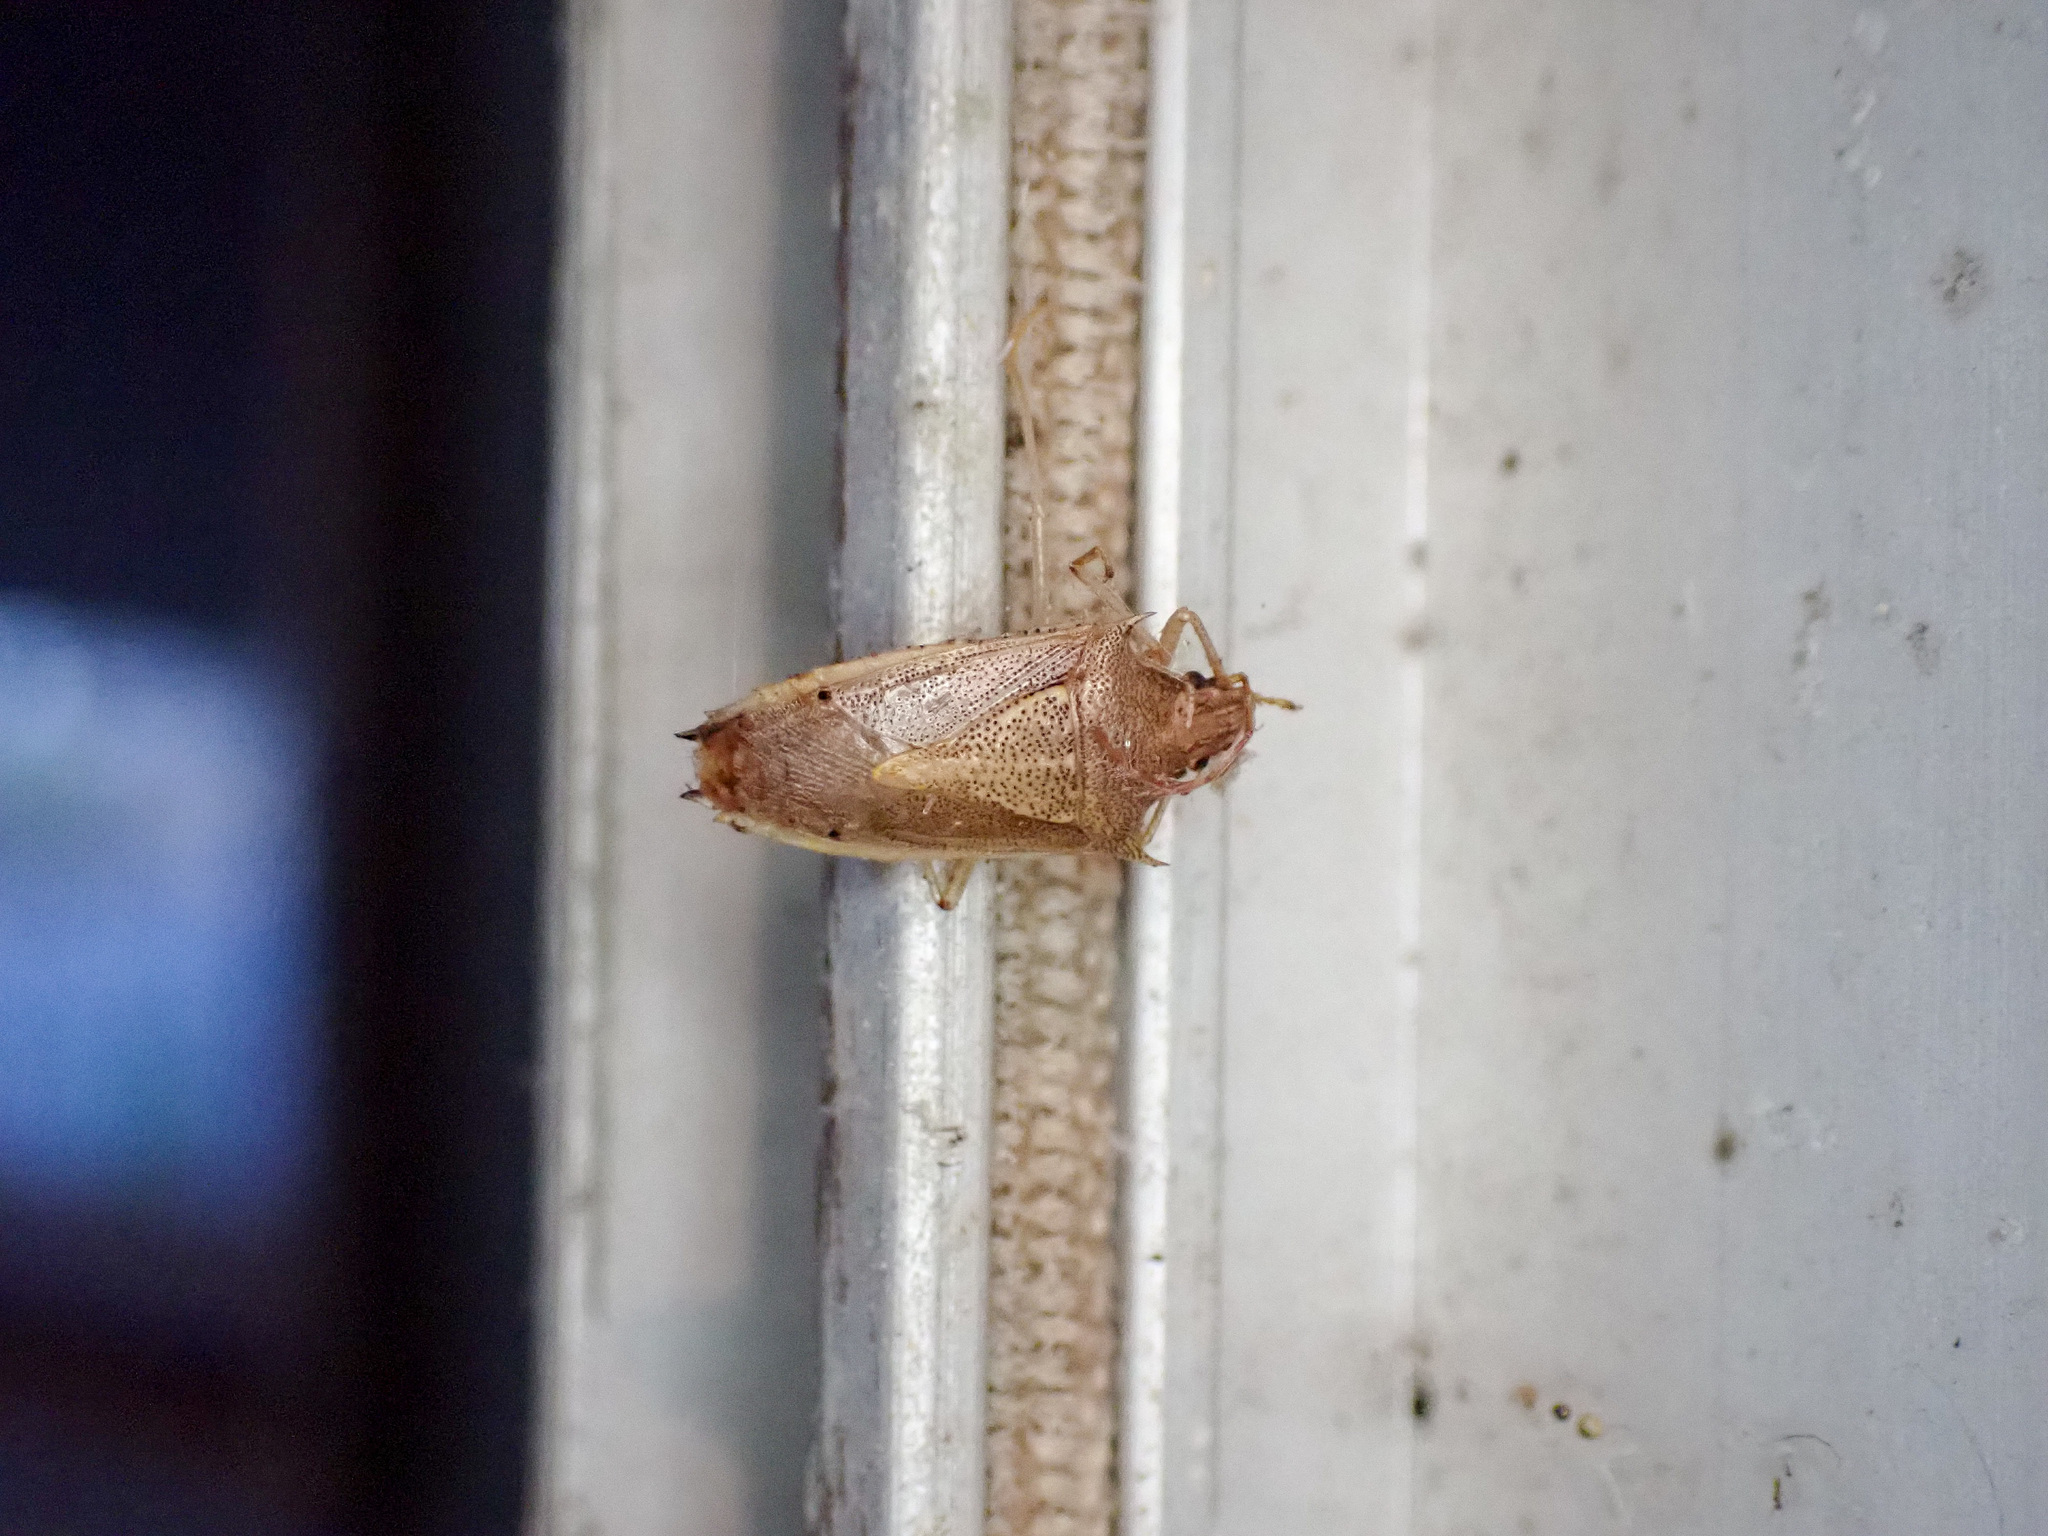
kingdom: Animalia
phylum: Arthropoda
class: Insecta
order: Hemiptera
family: Pentatomidae
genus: Oebalus
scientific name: Oebalus pugnax
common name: Rice stink bug
